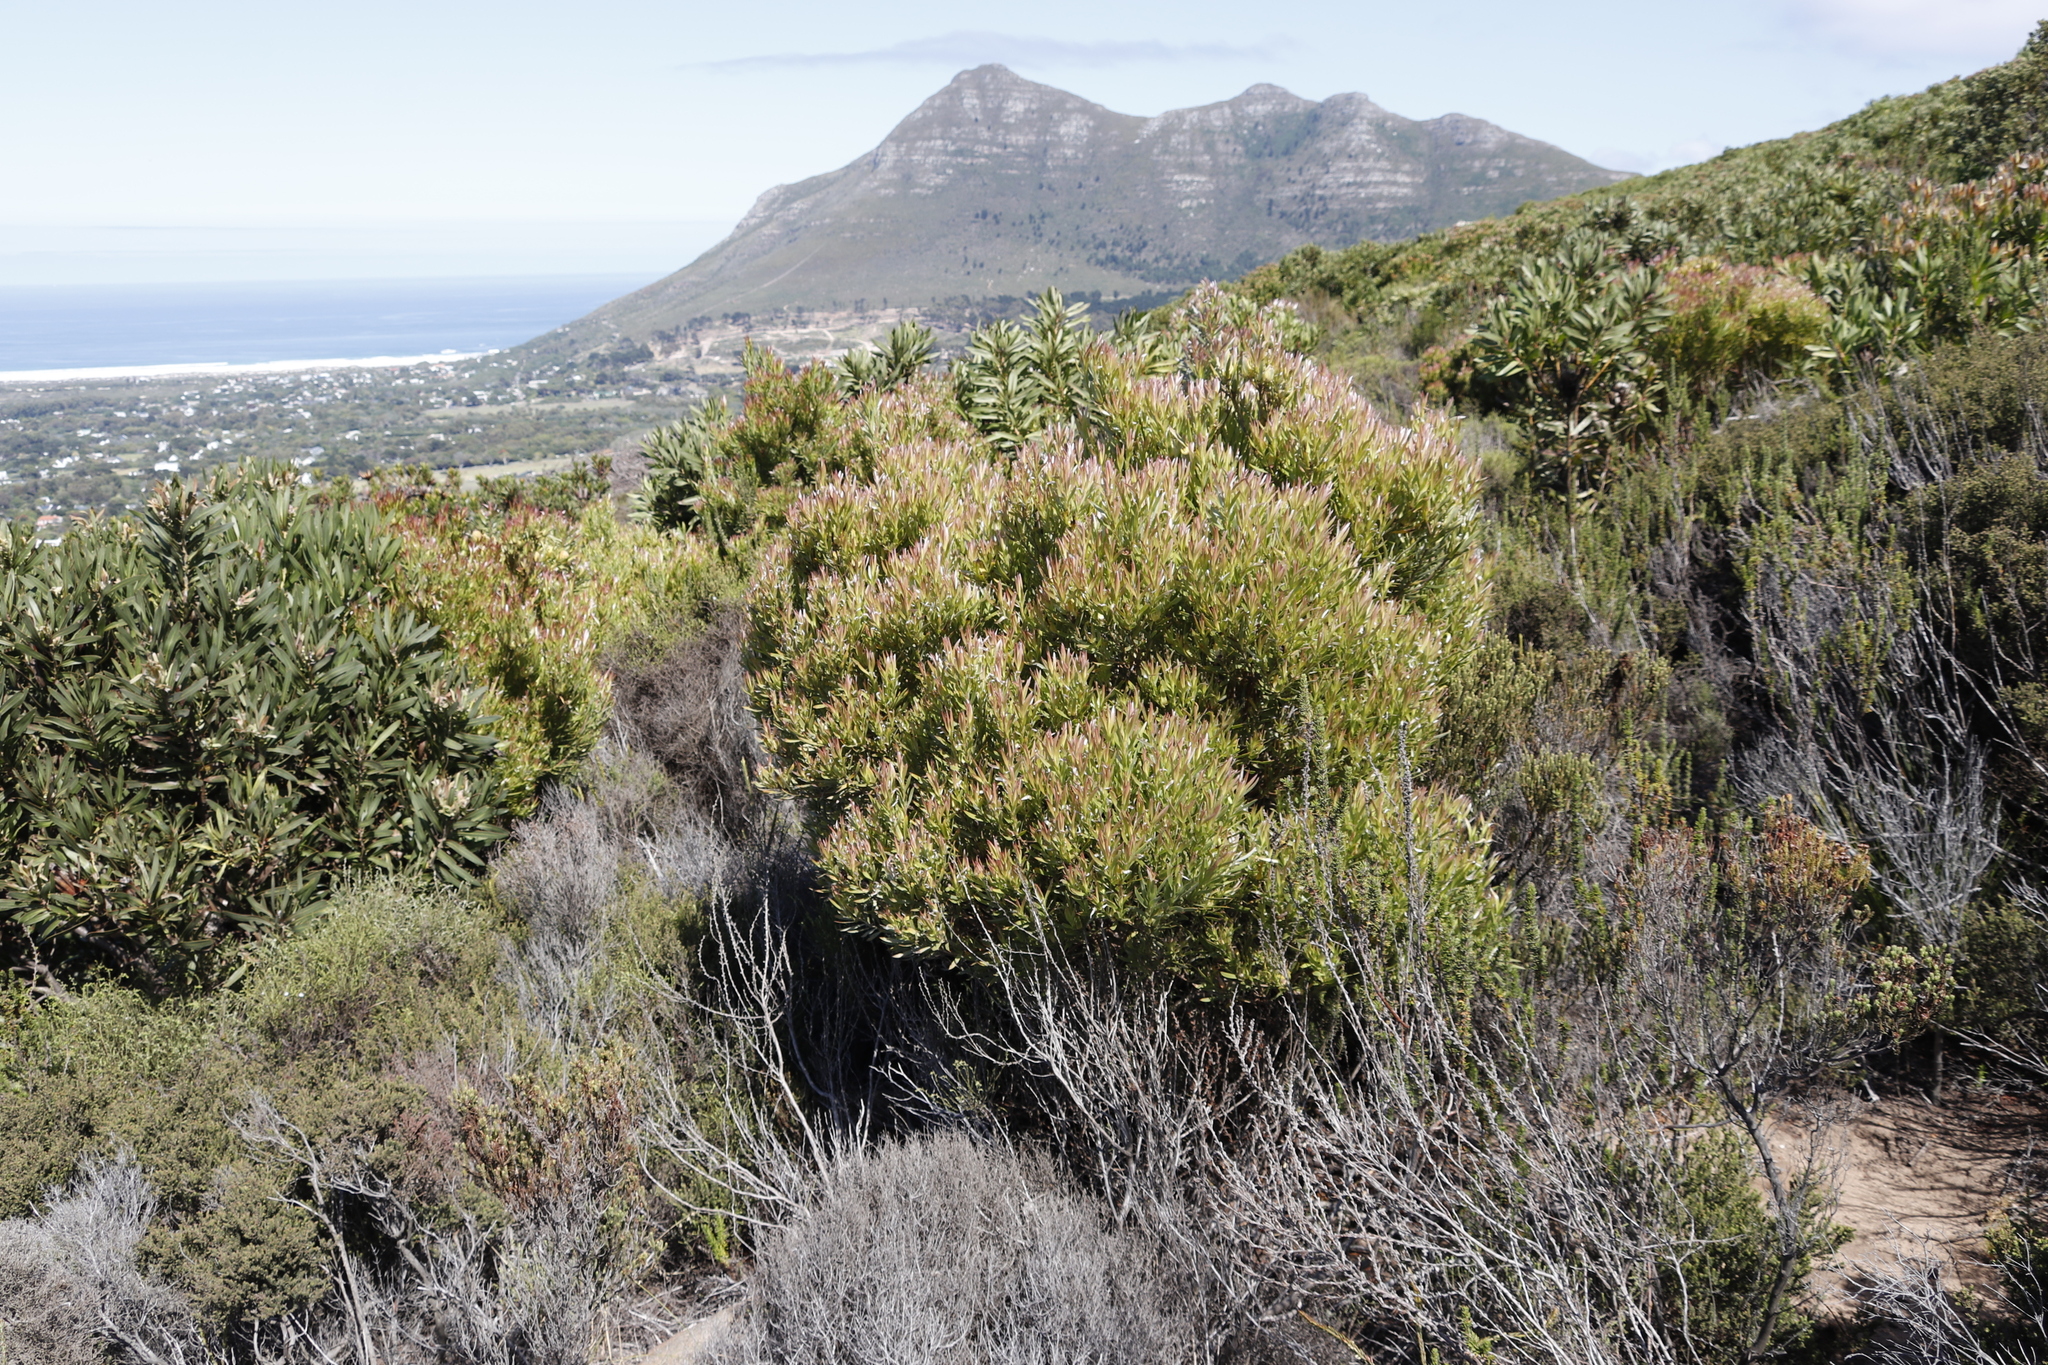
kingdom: Plantae
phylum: Tracheophyta
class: Magnoliopsida
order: Proteales
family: Proteaceae
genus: Leucadendron
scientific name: Leucadendron xanthoconus
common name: Sickle-leaf conebush
